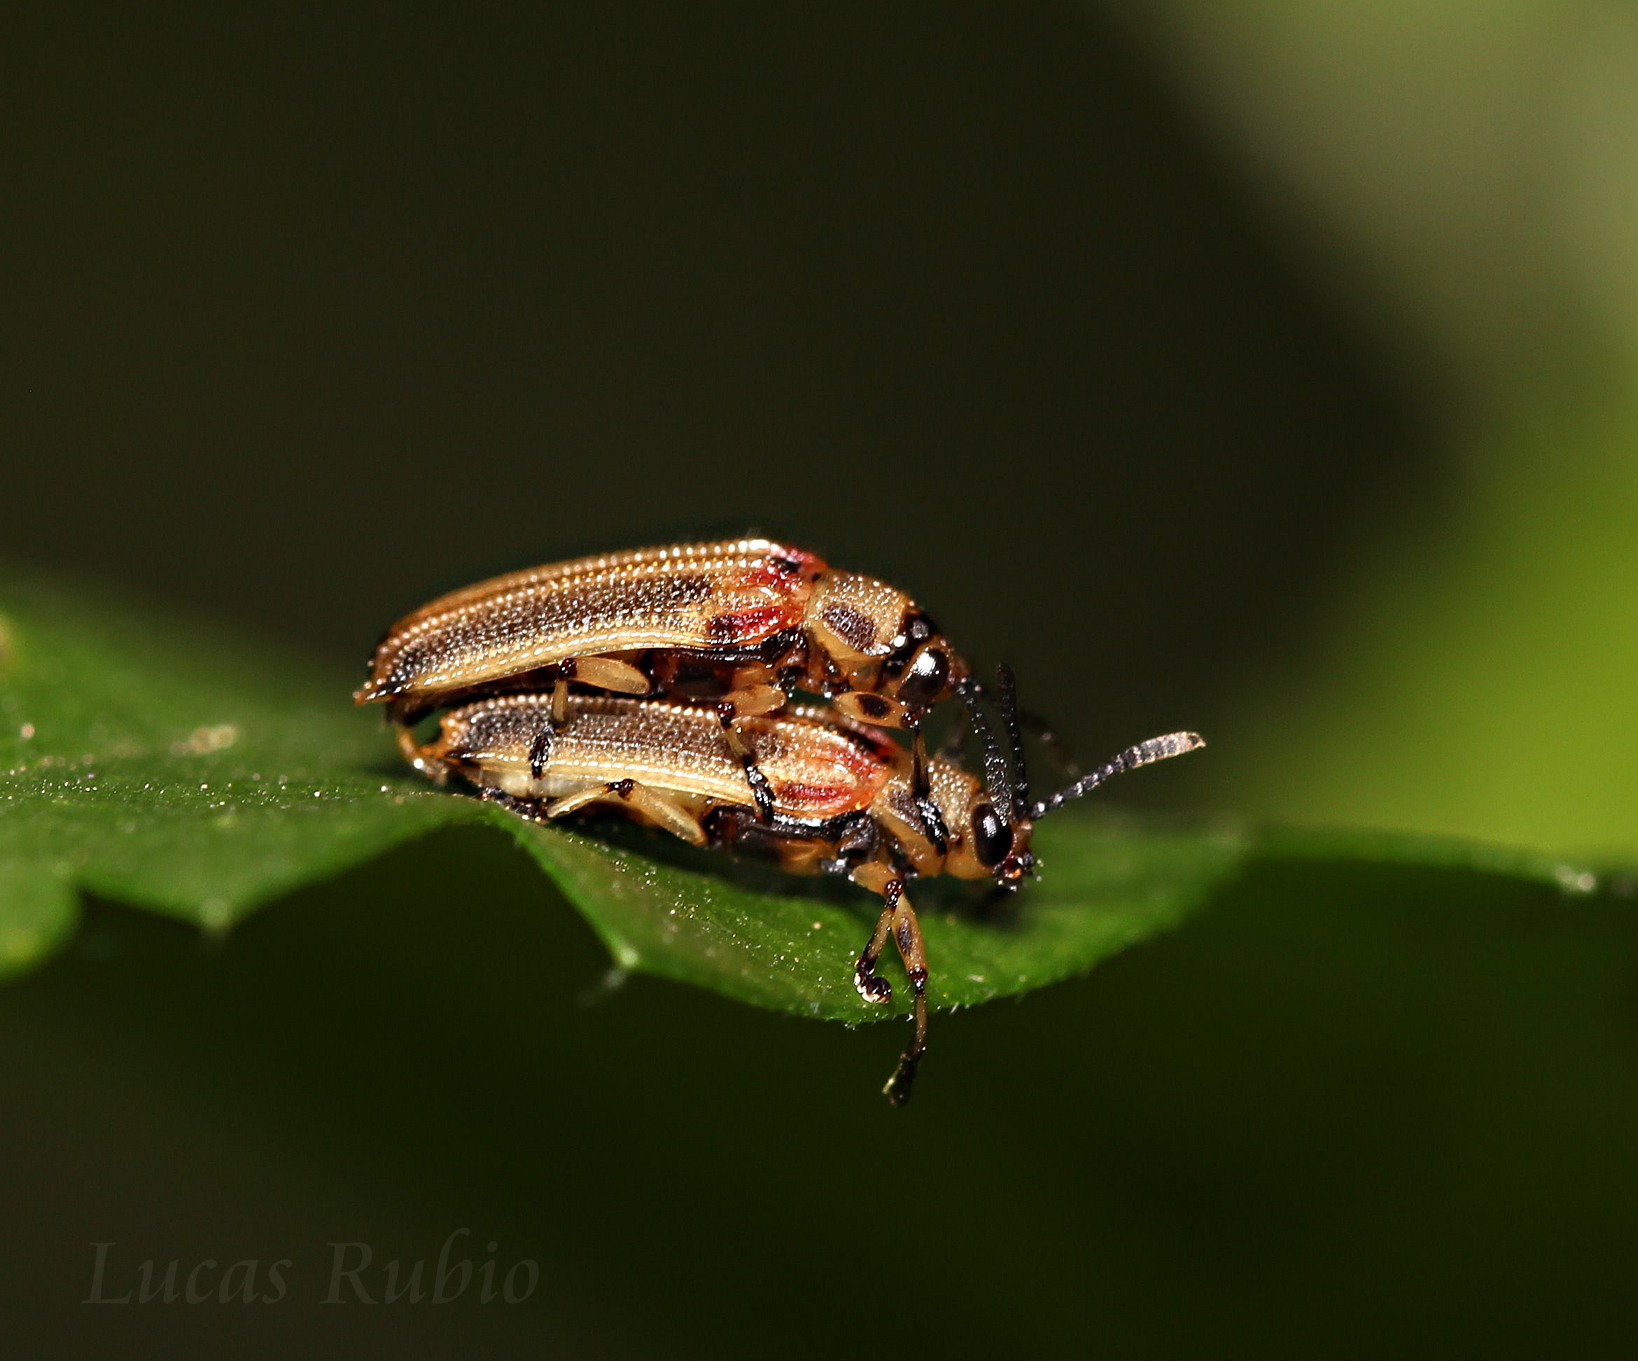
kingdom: Animalia
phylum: Arthropoda
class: Insecta
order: Coleoptera
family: Chrysomelidae
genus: Heterispa
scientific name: Heterispa costipennis
